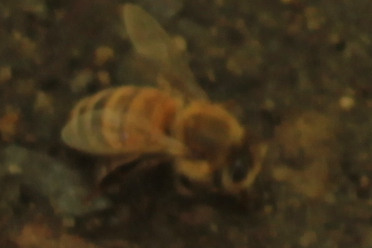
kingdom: Animalia
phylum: Arthropoda
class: Insecta
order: Hymenoptera
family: Apidae
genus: Apis
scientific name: Apis mellifera
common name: Honey bee
